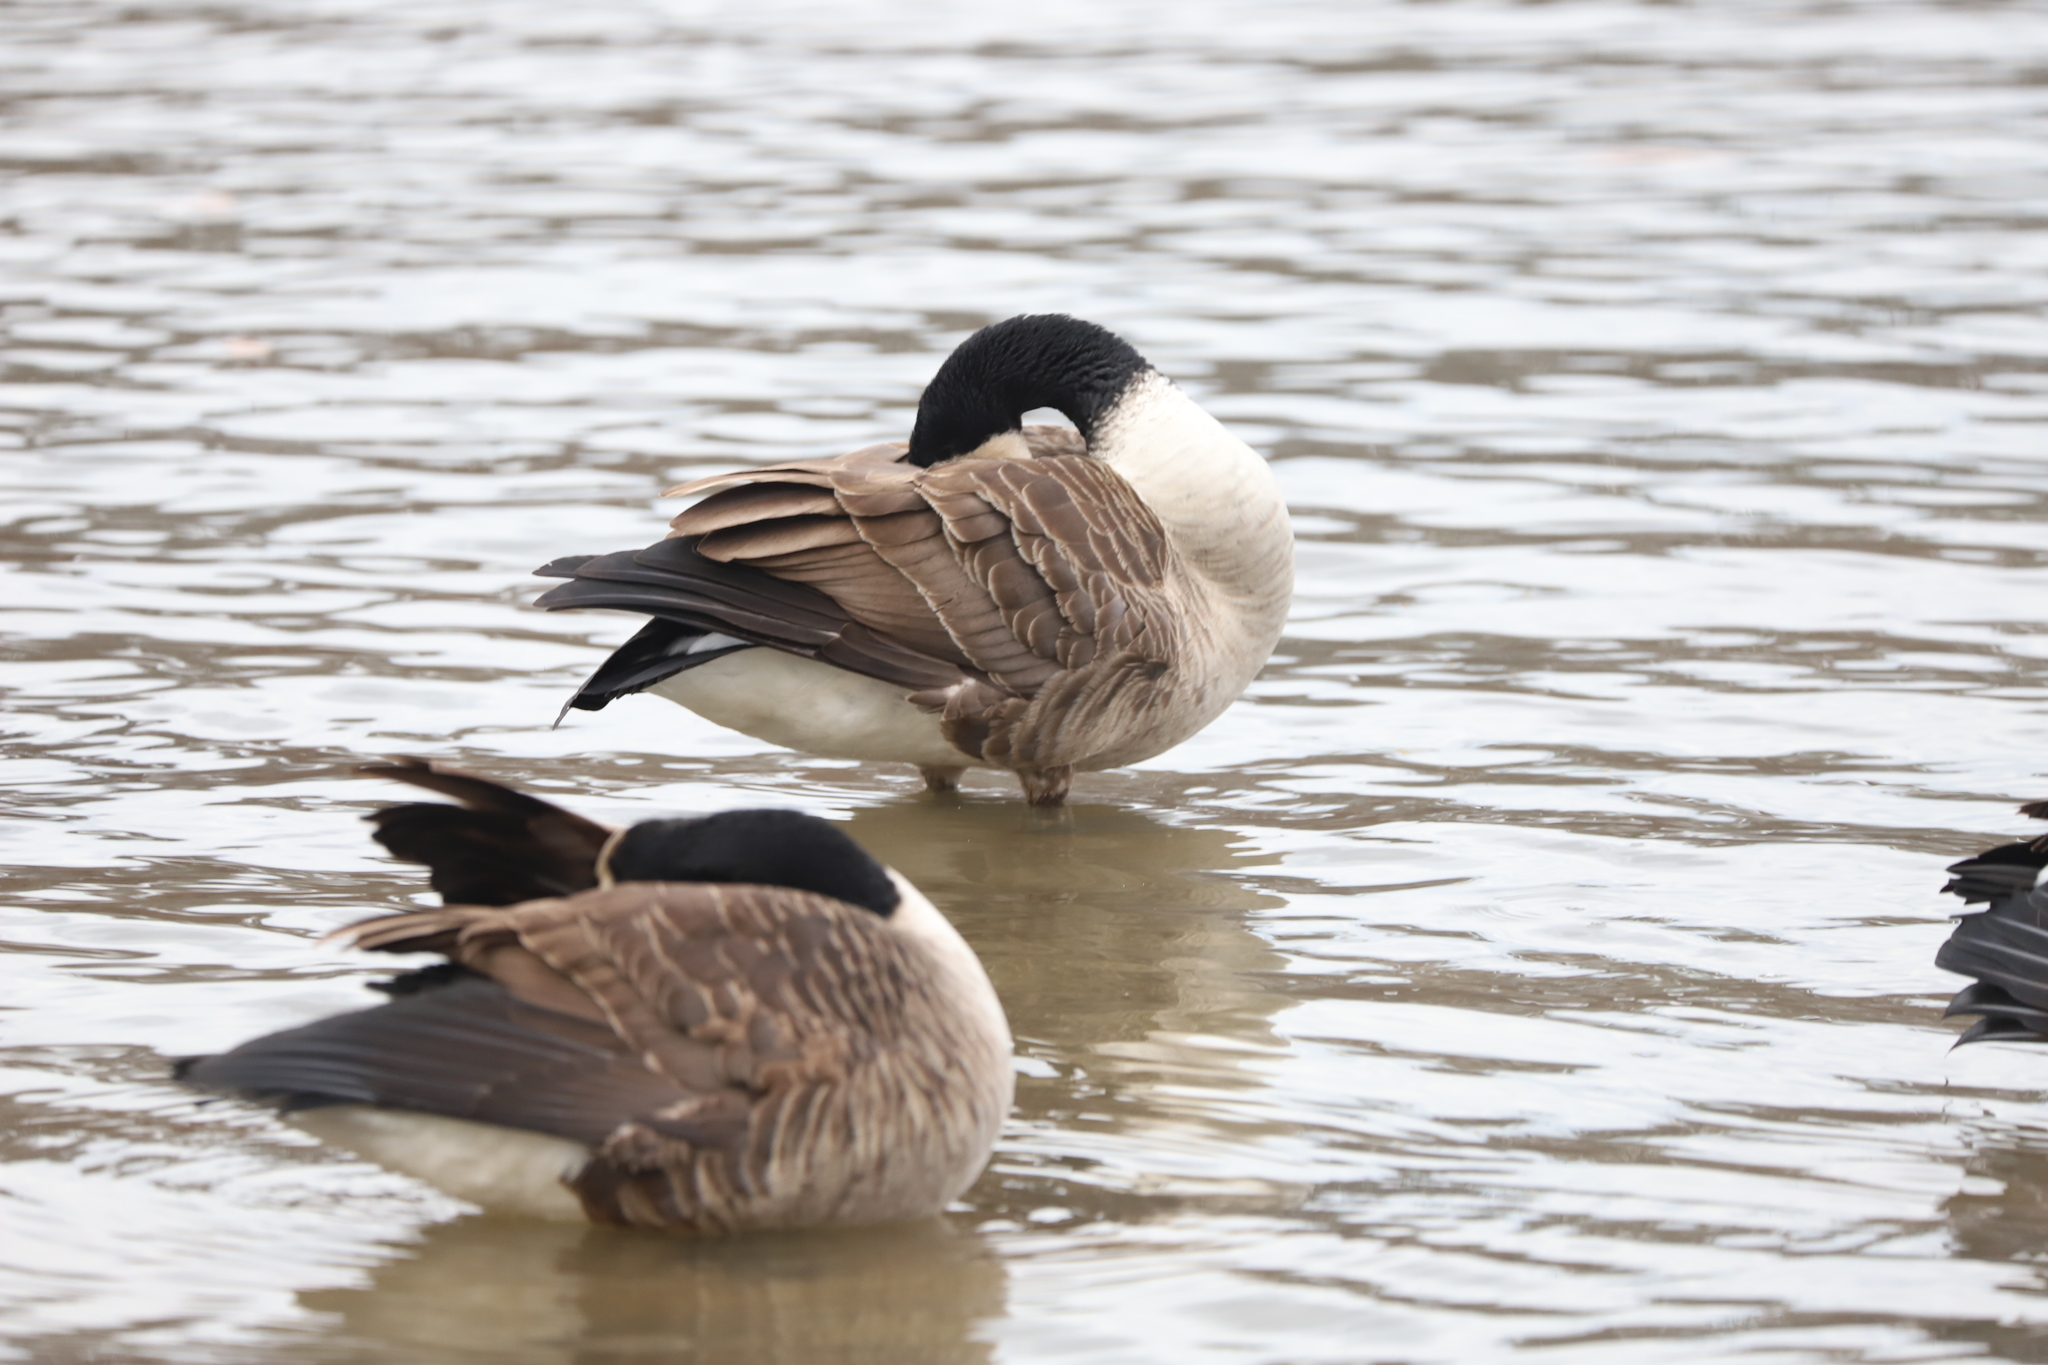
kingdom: Animalia
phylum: Chordata
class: Aves
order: Anseriformes
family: Anatidae
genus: Branta
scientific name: Branta canadensis
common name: Canada goose
